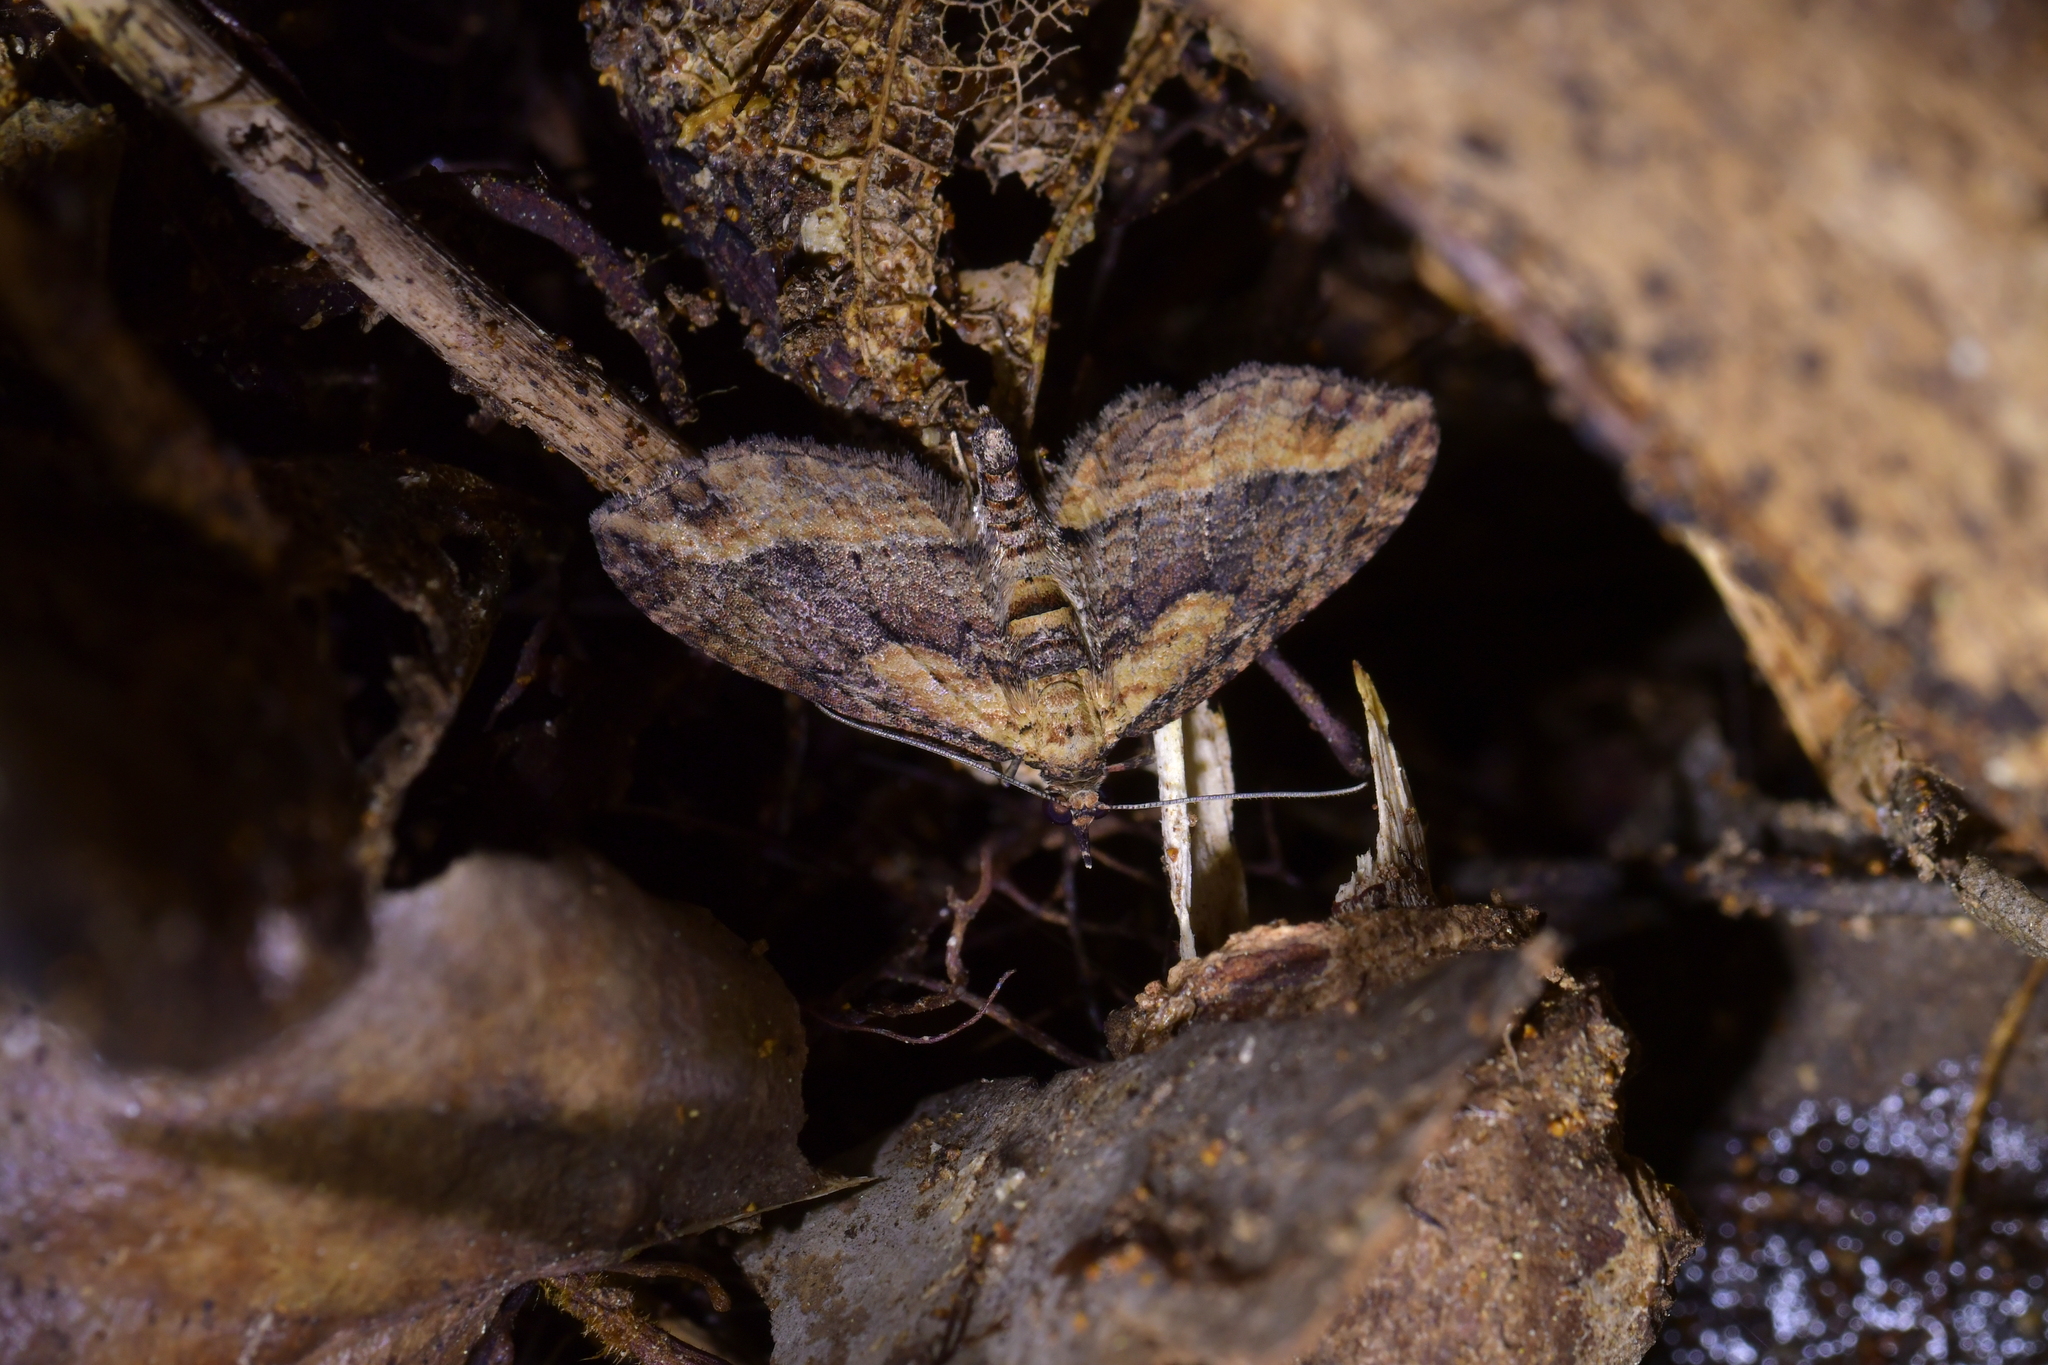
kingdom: Animalia
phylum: Arthropoda
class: Insecta
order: Lepidoptera
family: Geometridae
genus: Chloroclystis
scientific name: Chloroclystis filata
